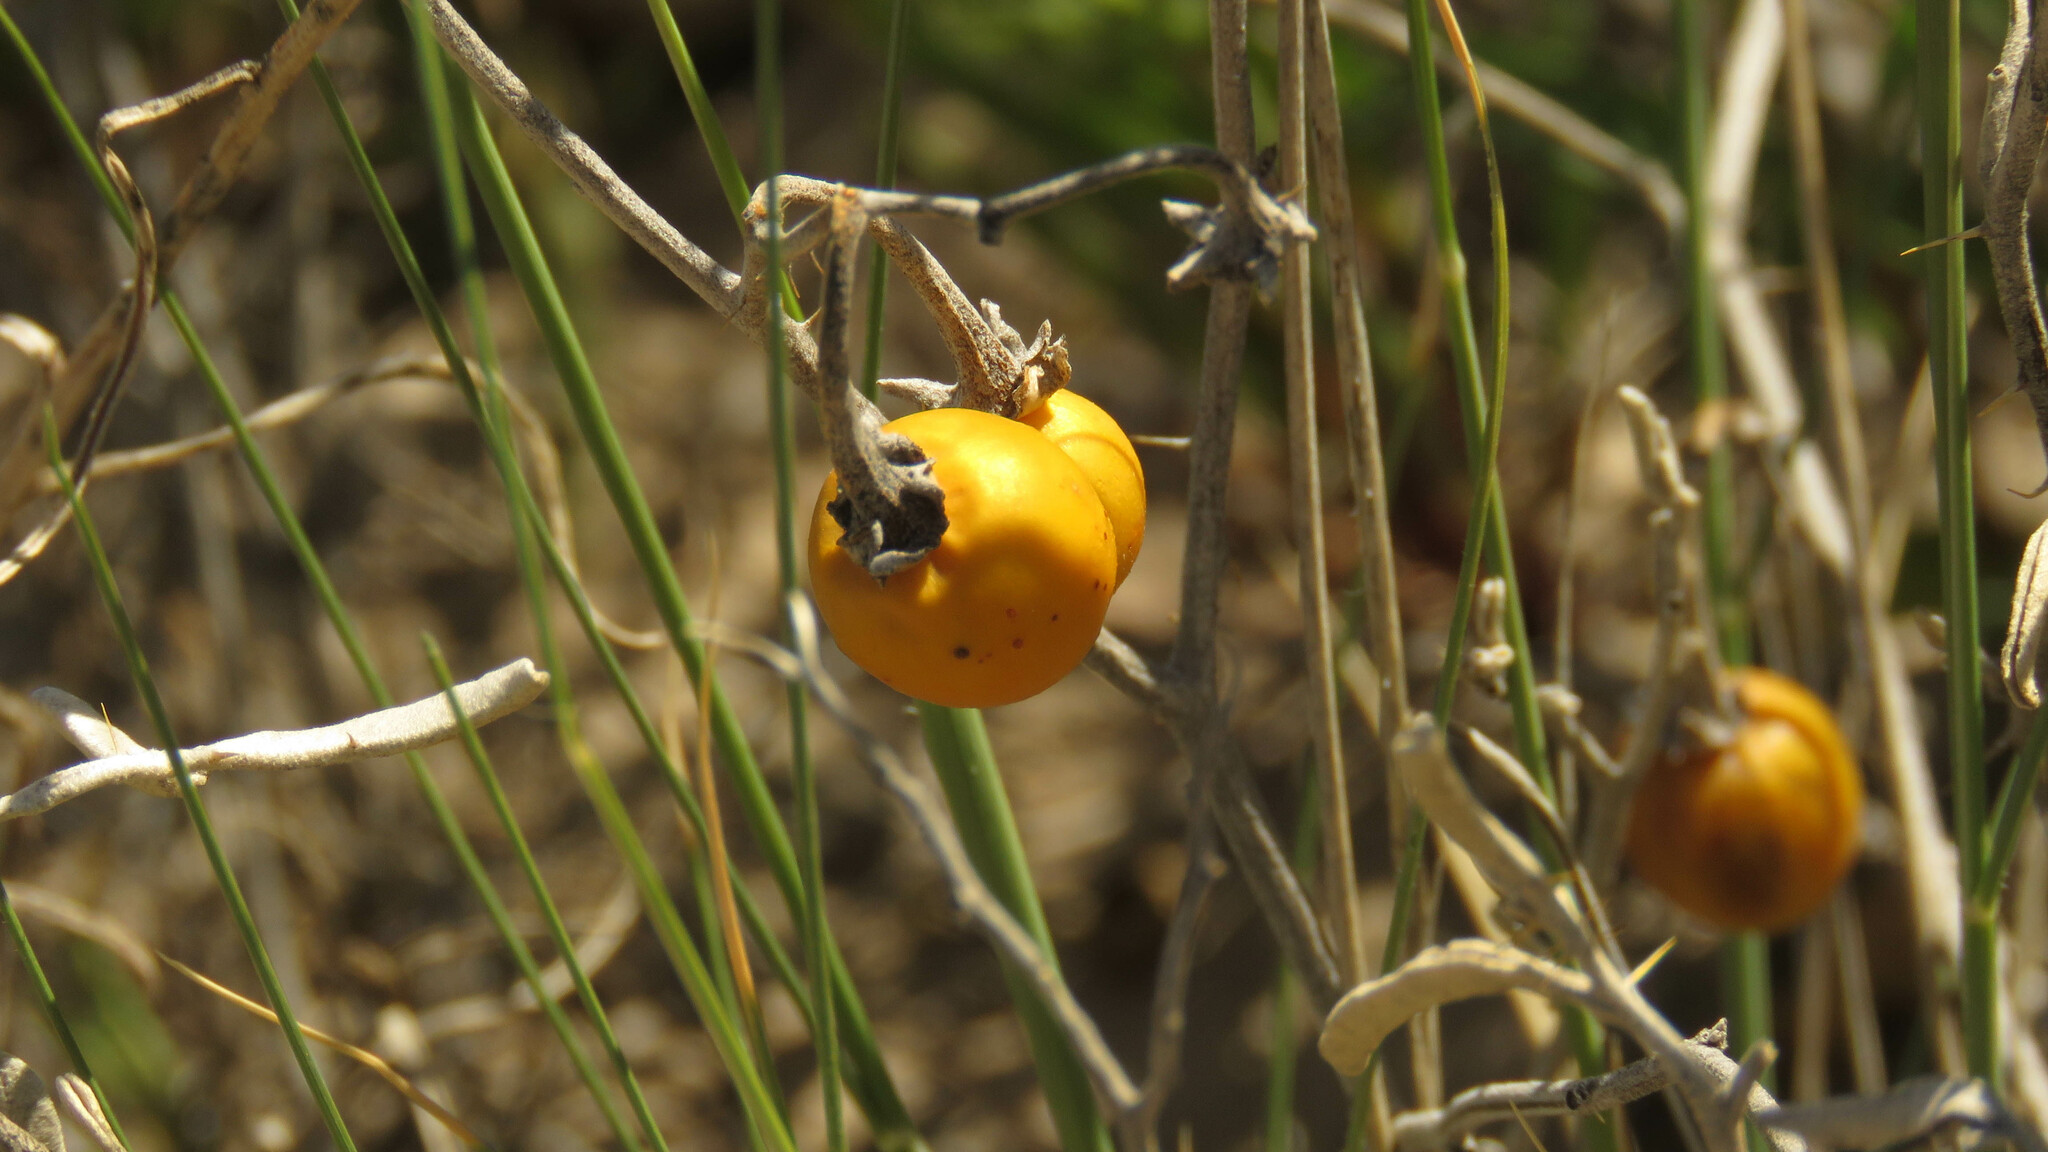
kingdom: Plantae
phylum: Tracheophyta
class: Magnoliopsida
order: Solanales
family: Solanaceae
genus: Solanum
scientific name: Solanum elaeagnifolium
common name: Silverleaf nightshade
